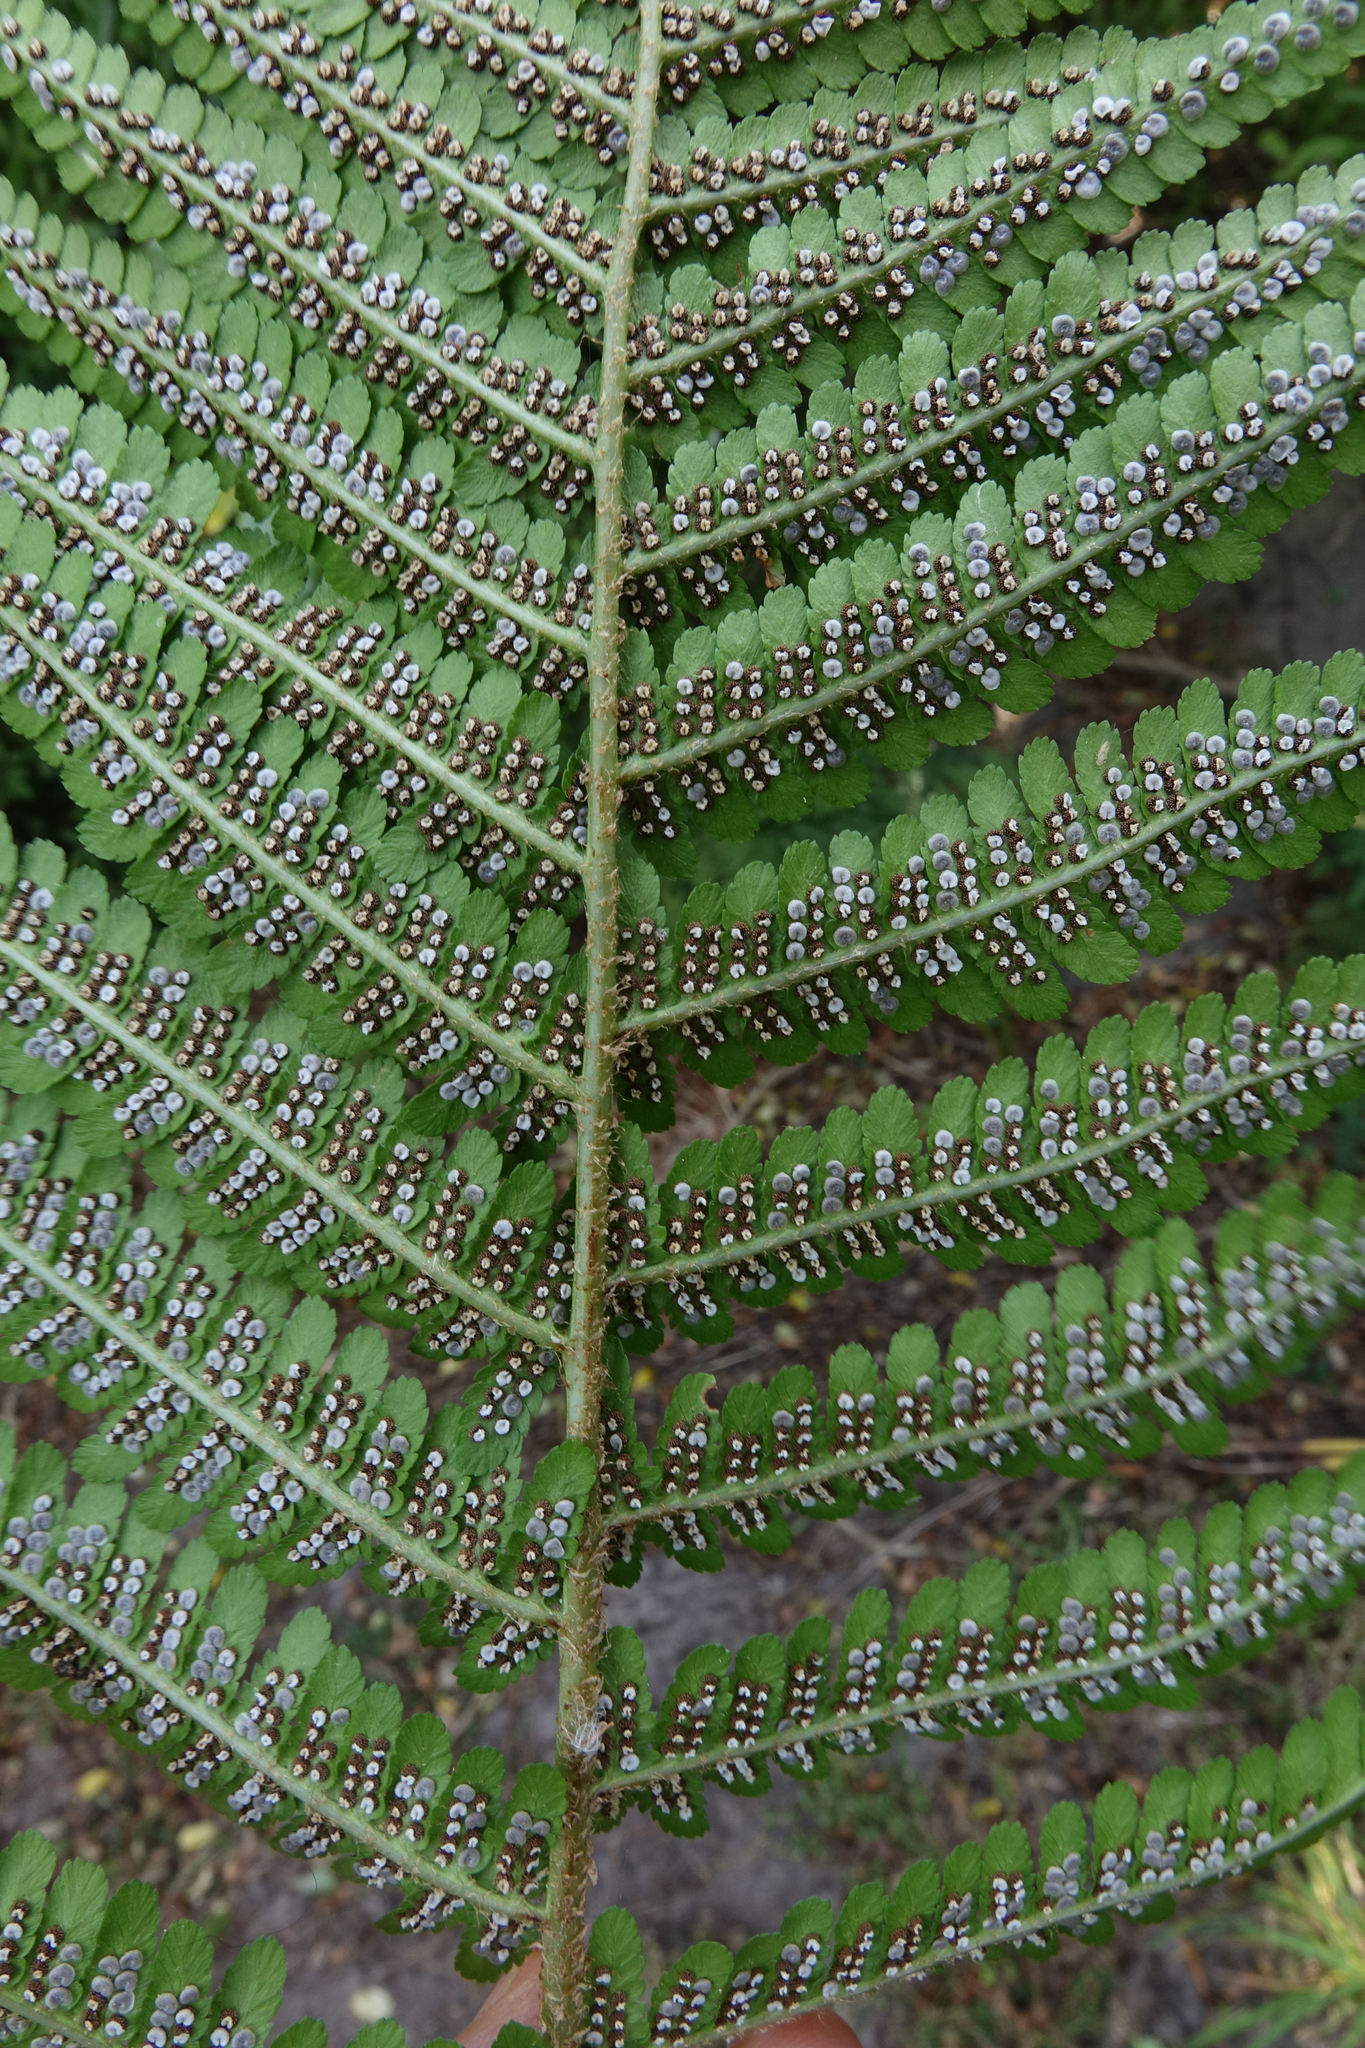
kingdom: Plantae
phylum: Tracheophyta
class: Polypodiopsida
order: Polypodiales
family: Dryopteridaceae
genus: Dryopteris
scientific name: Dryopteris filix-mas
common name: Male fern
